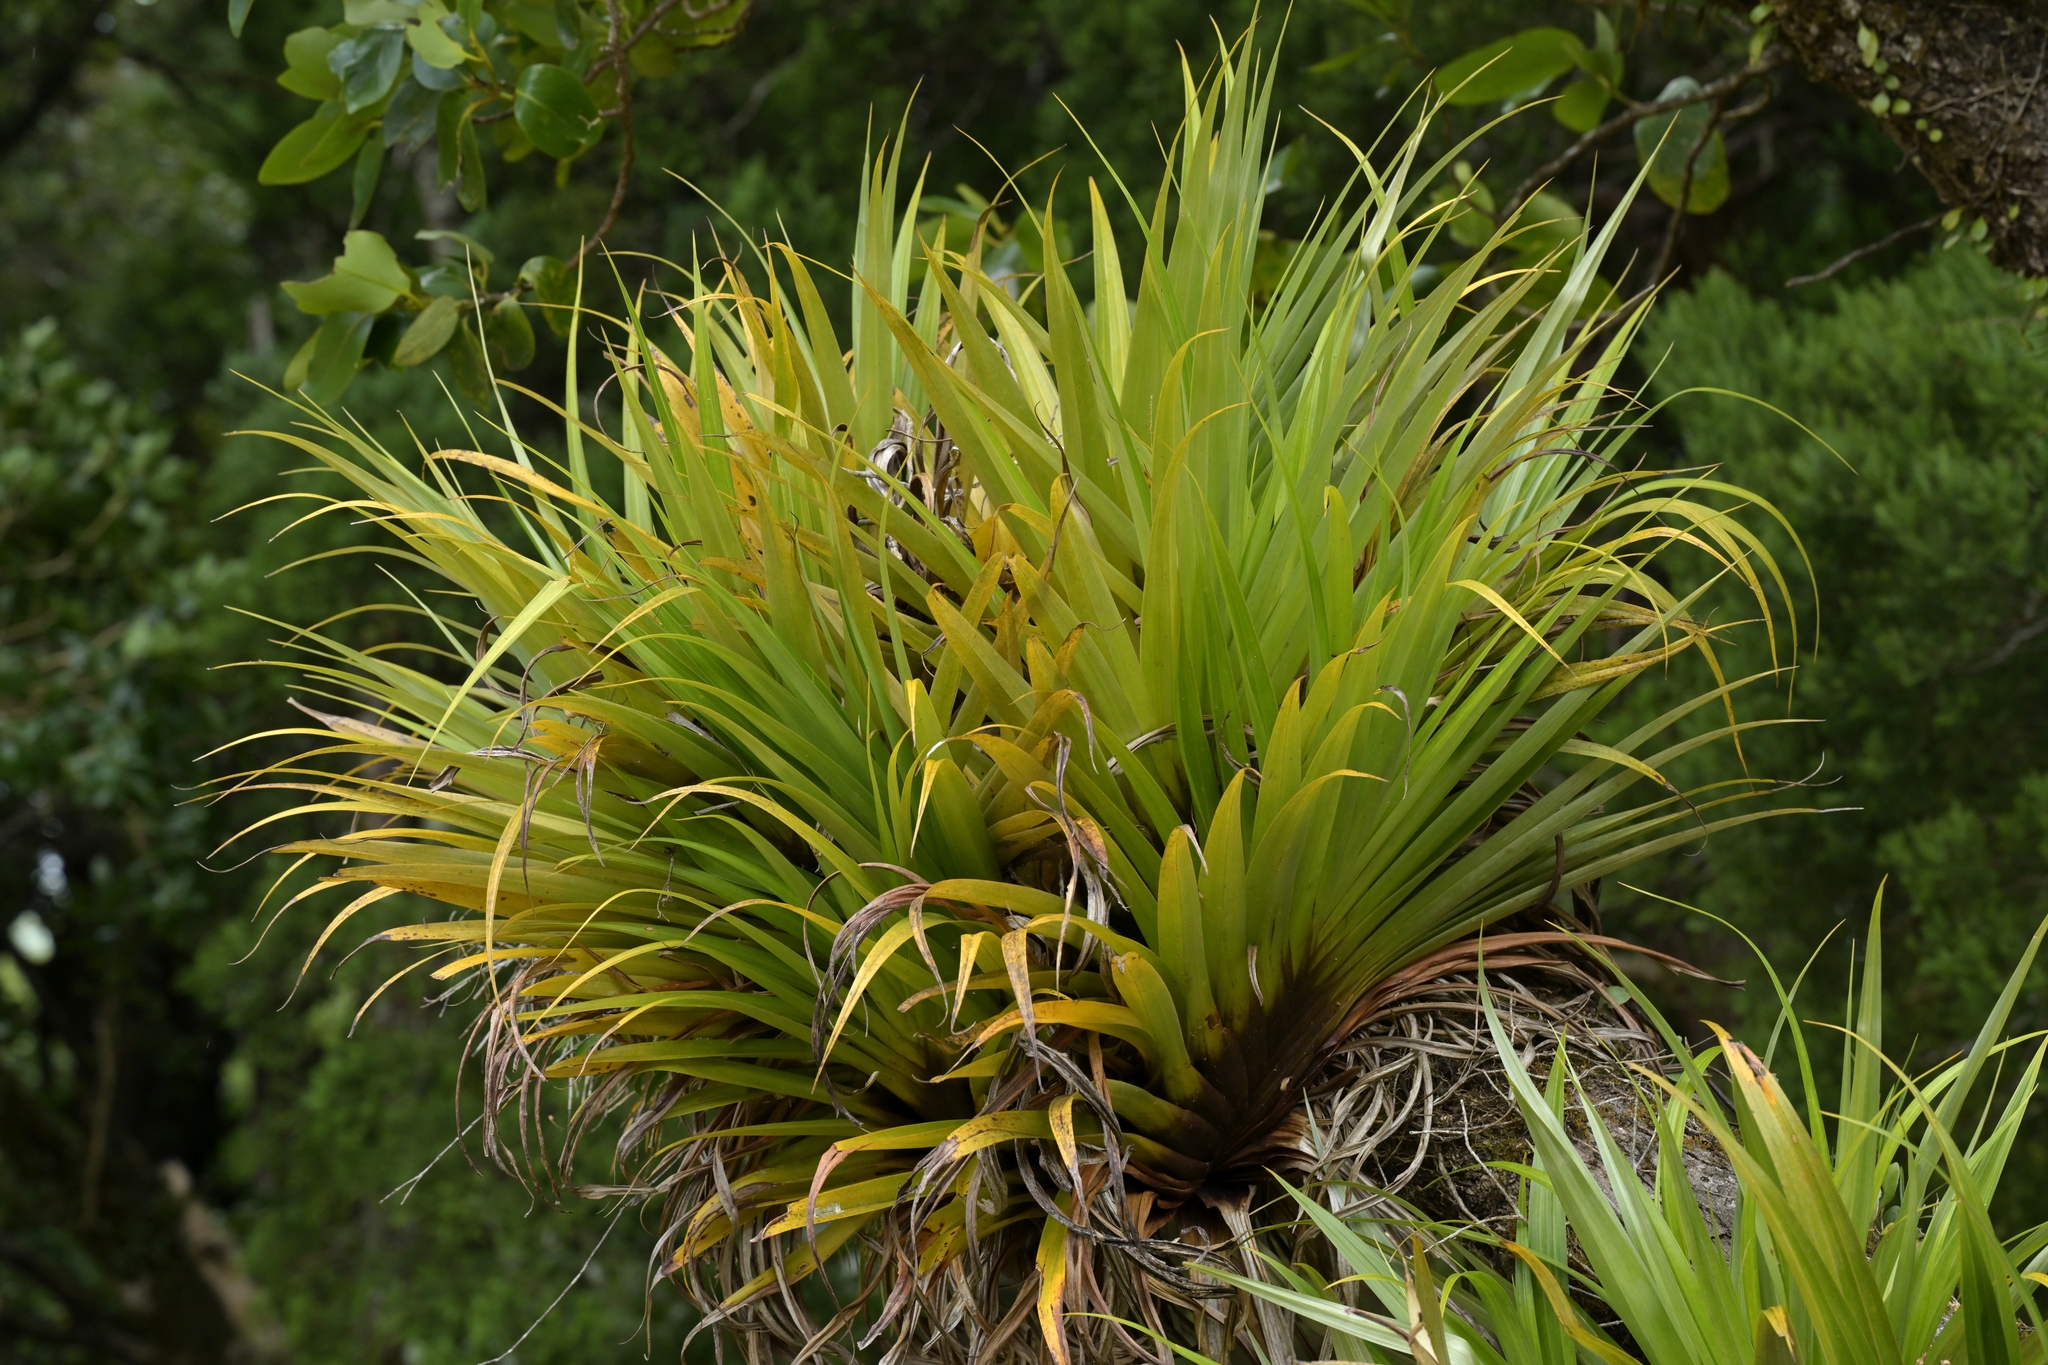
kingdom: Plantae
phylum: Tracheophyta
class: Liliopsida
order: Asparagales
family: Asteliaceae
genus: Astelia
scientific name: Astelia hastata
